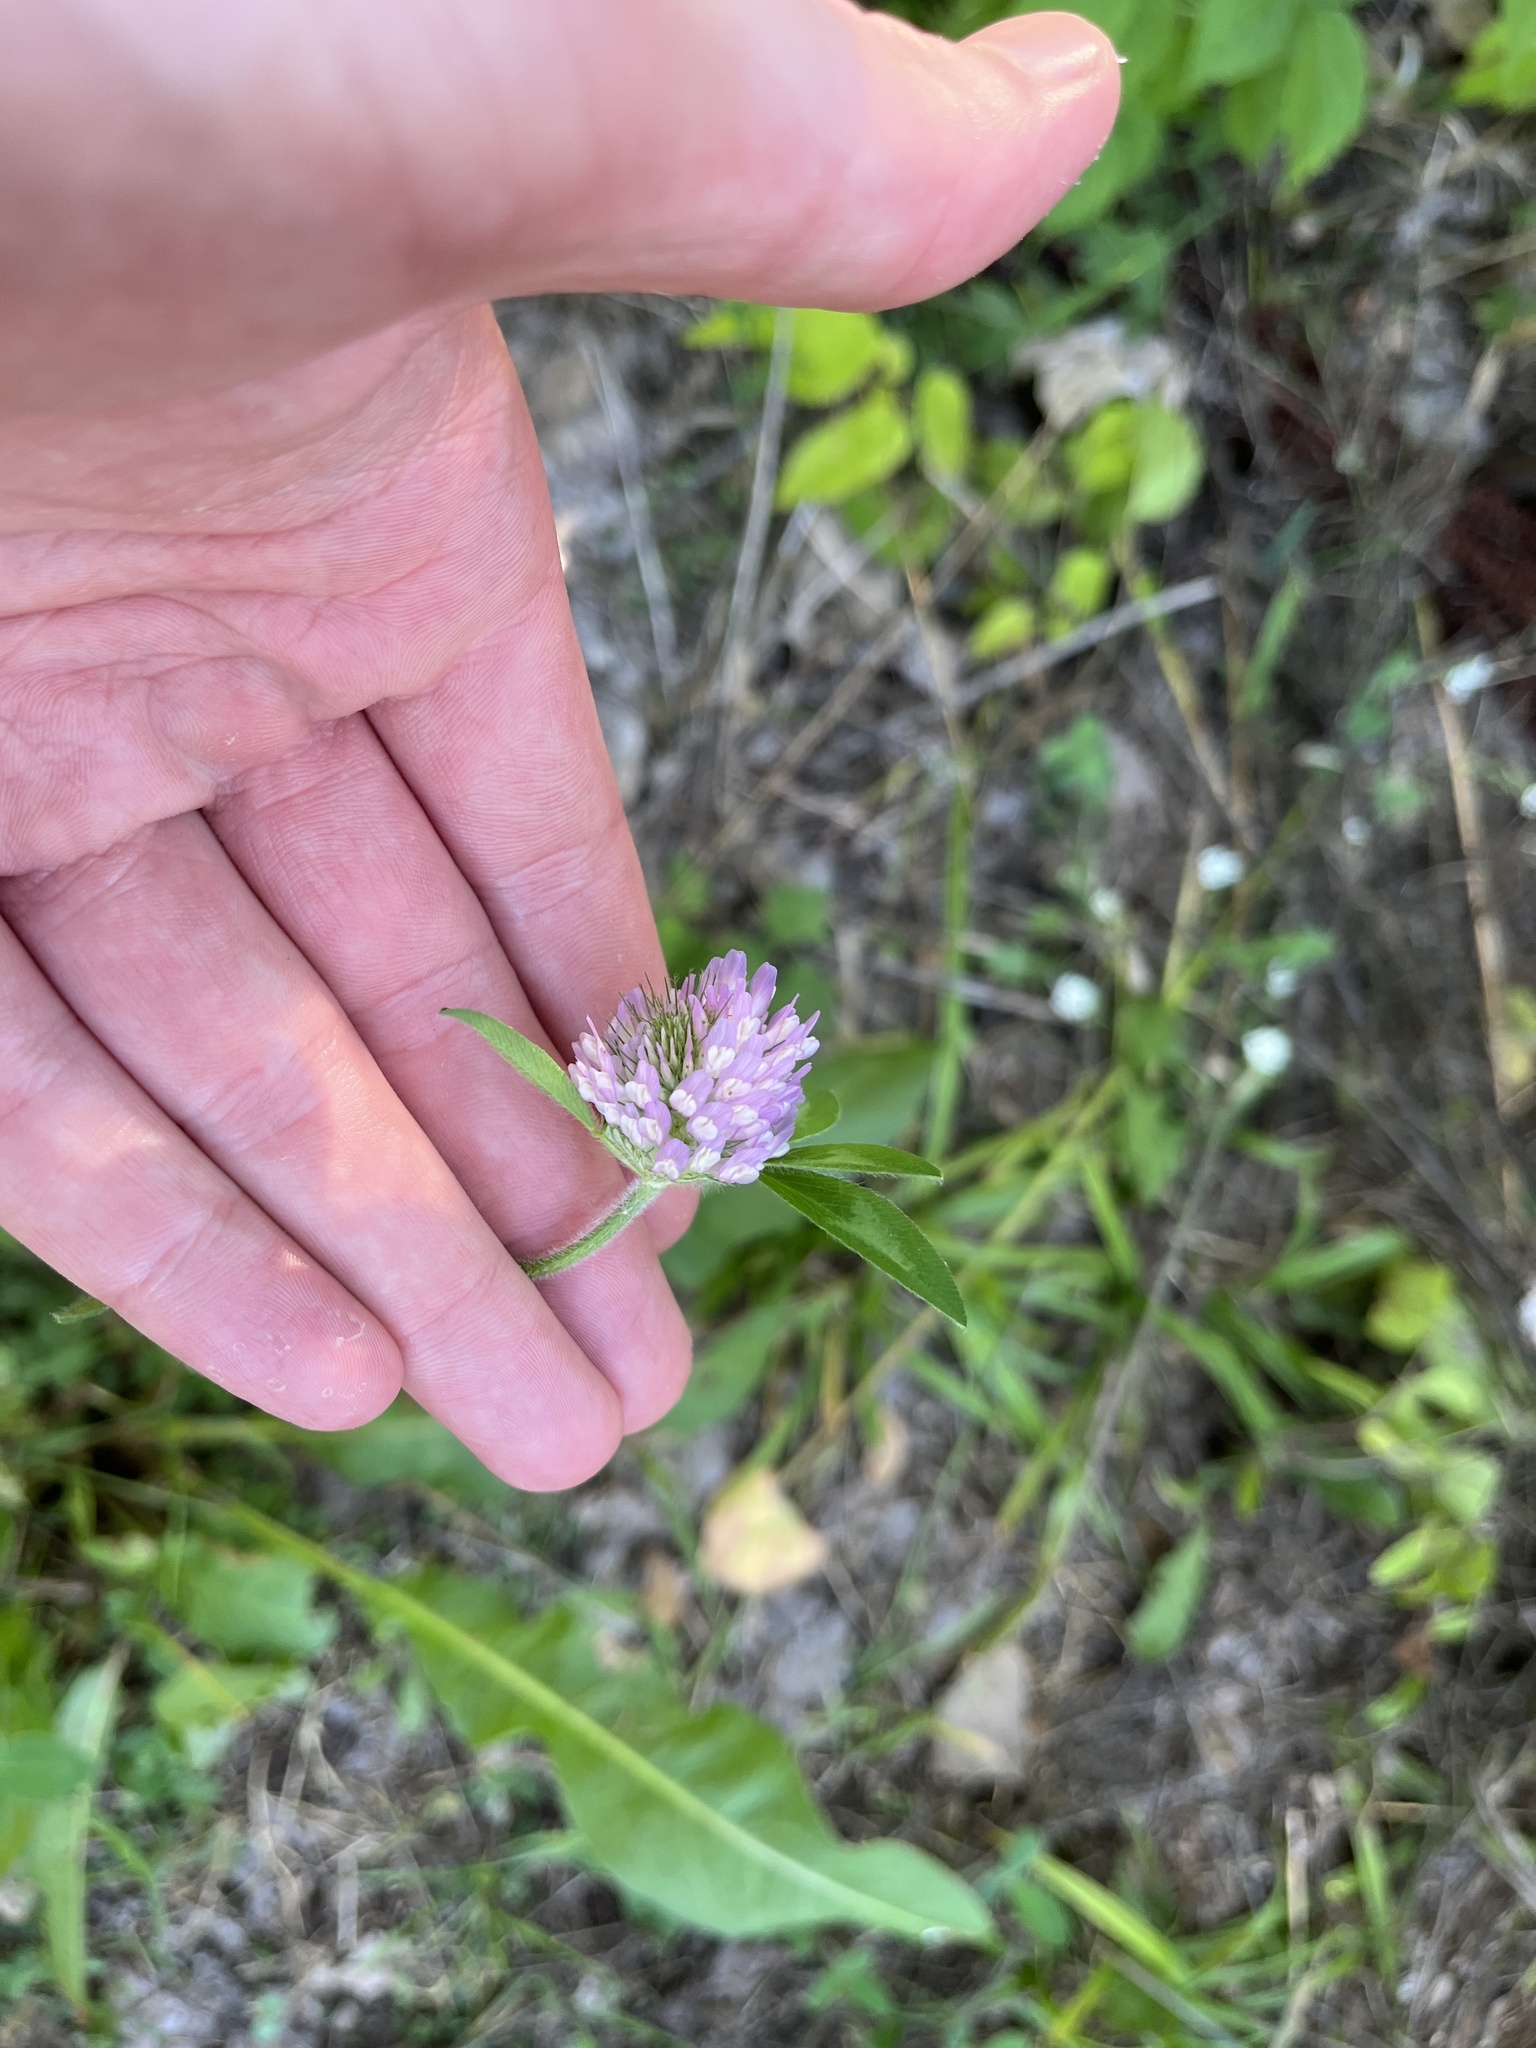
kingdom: Plantae
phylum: Tracheophyta
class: Magnoliopsida
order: Fabales
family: Fabaceae
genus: Trifolium
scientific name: Trifolium pratense
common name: Red clover
